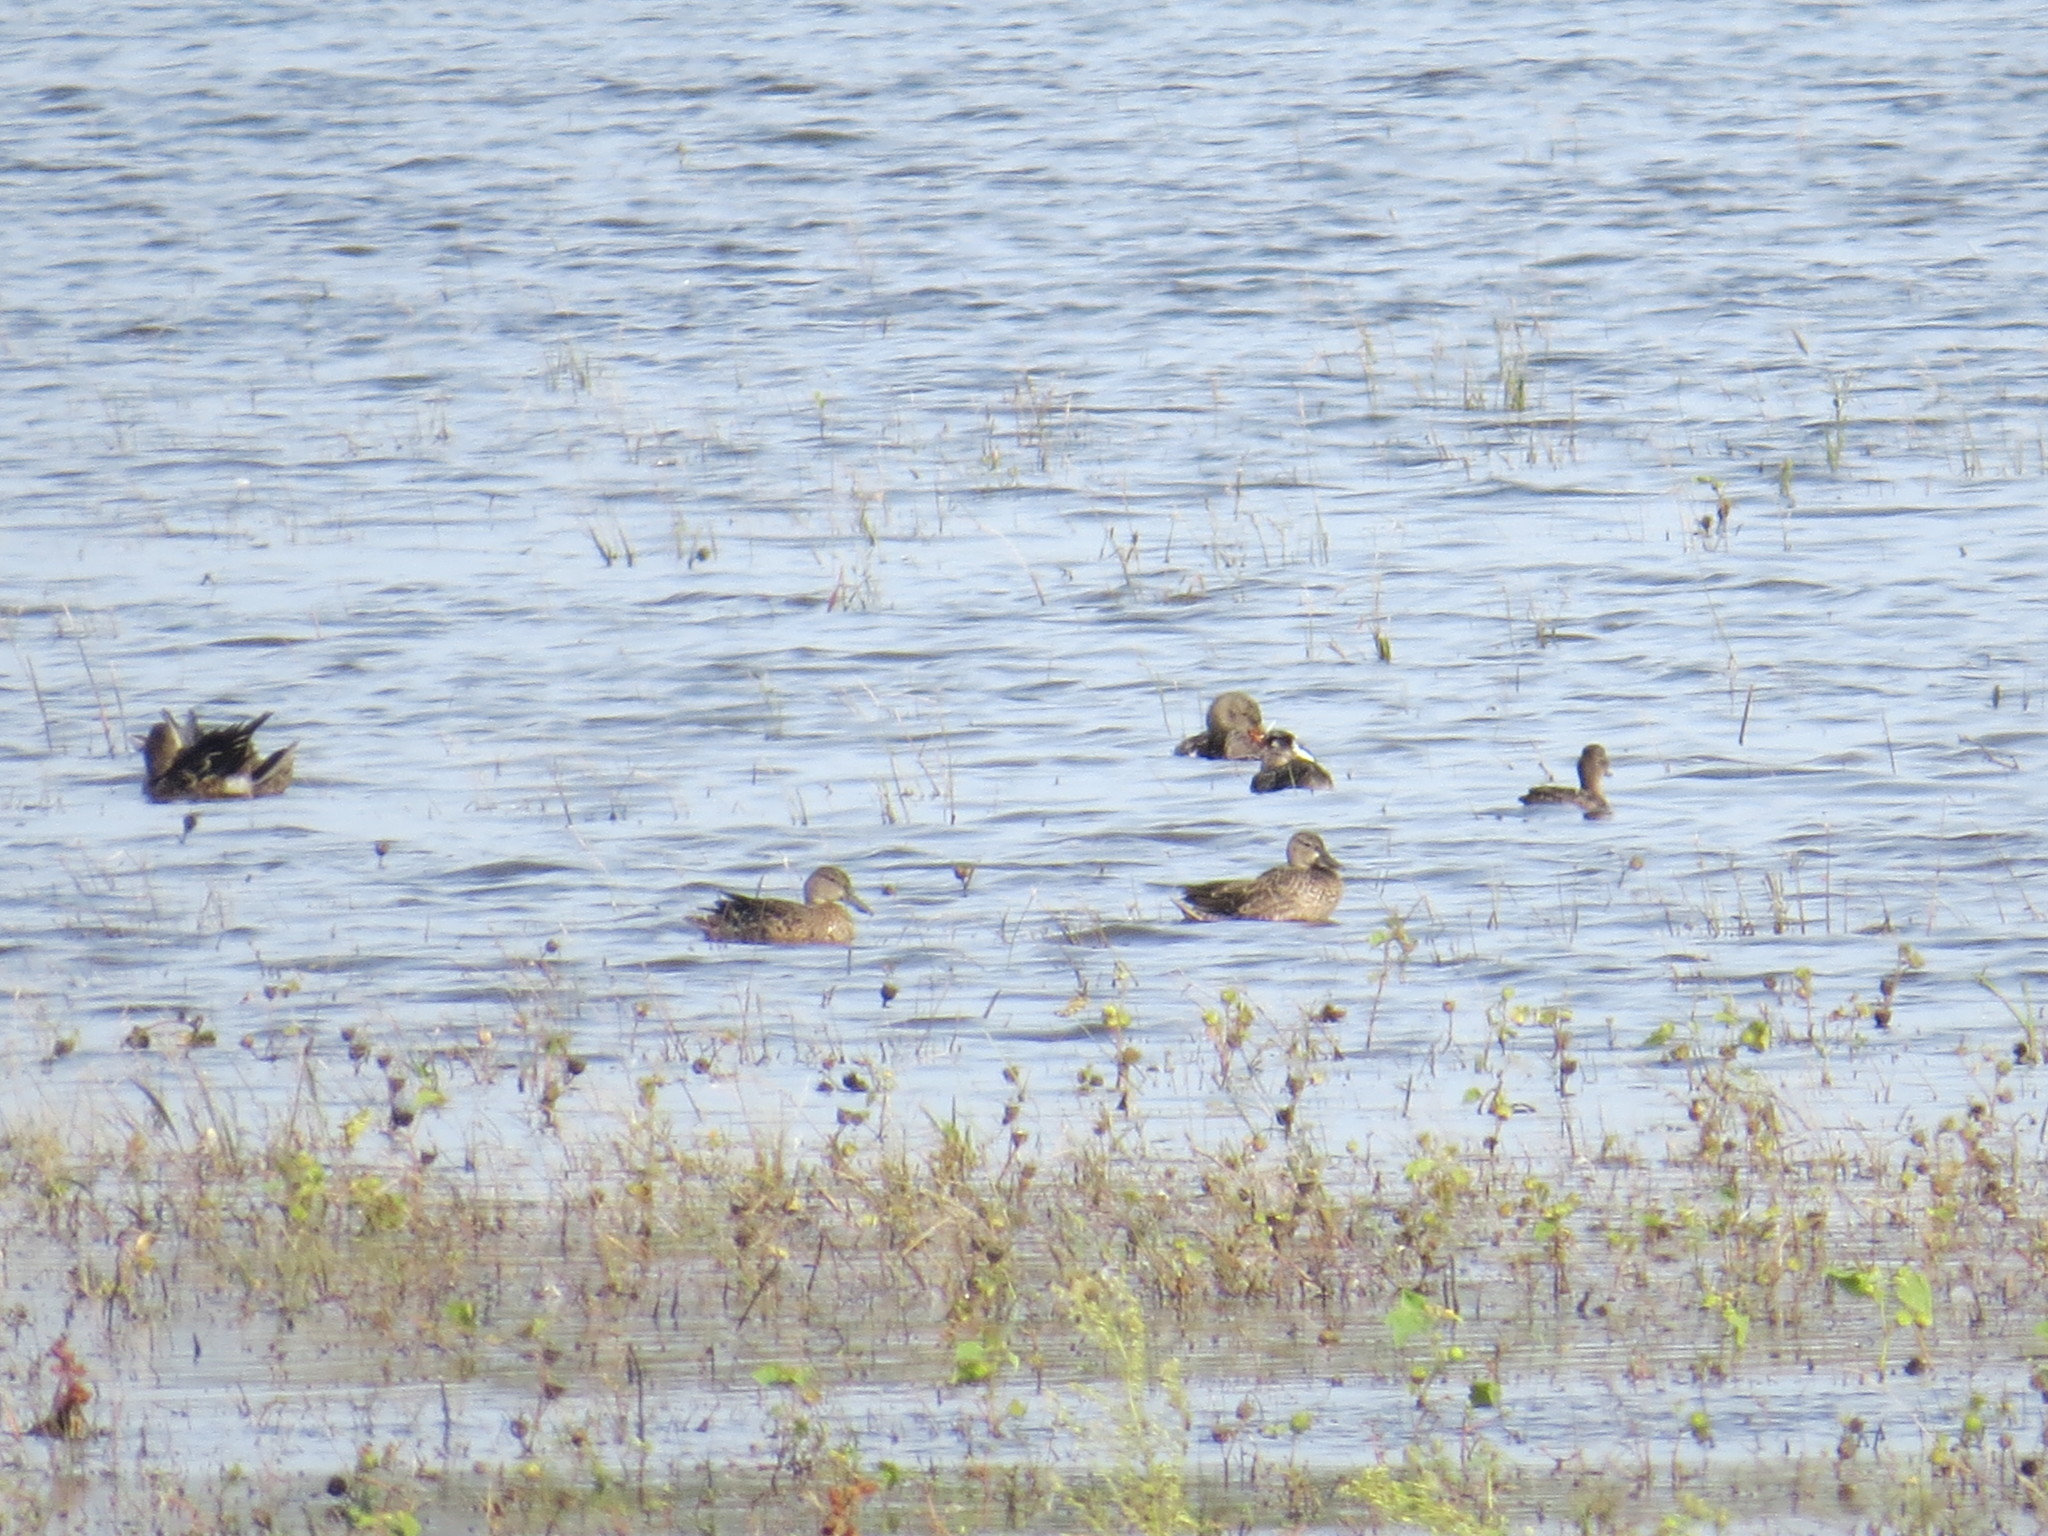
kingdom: Animalia
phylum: Chordata
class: Aves
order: Anseriformes
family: Anatidae
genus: Spatula
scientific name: Spatula discors
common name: Blue-winged teal
